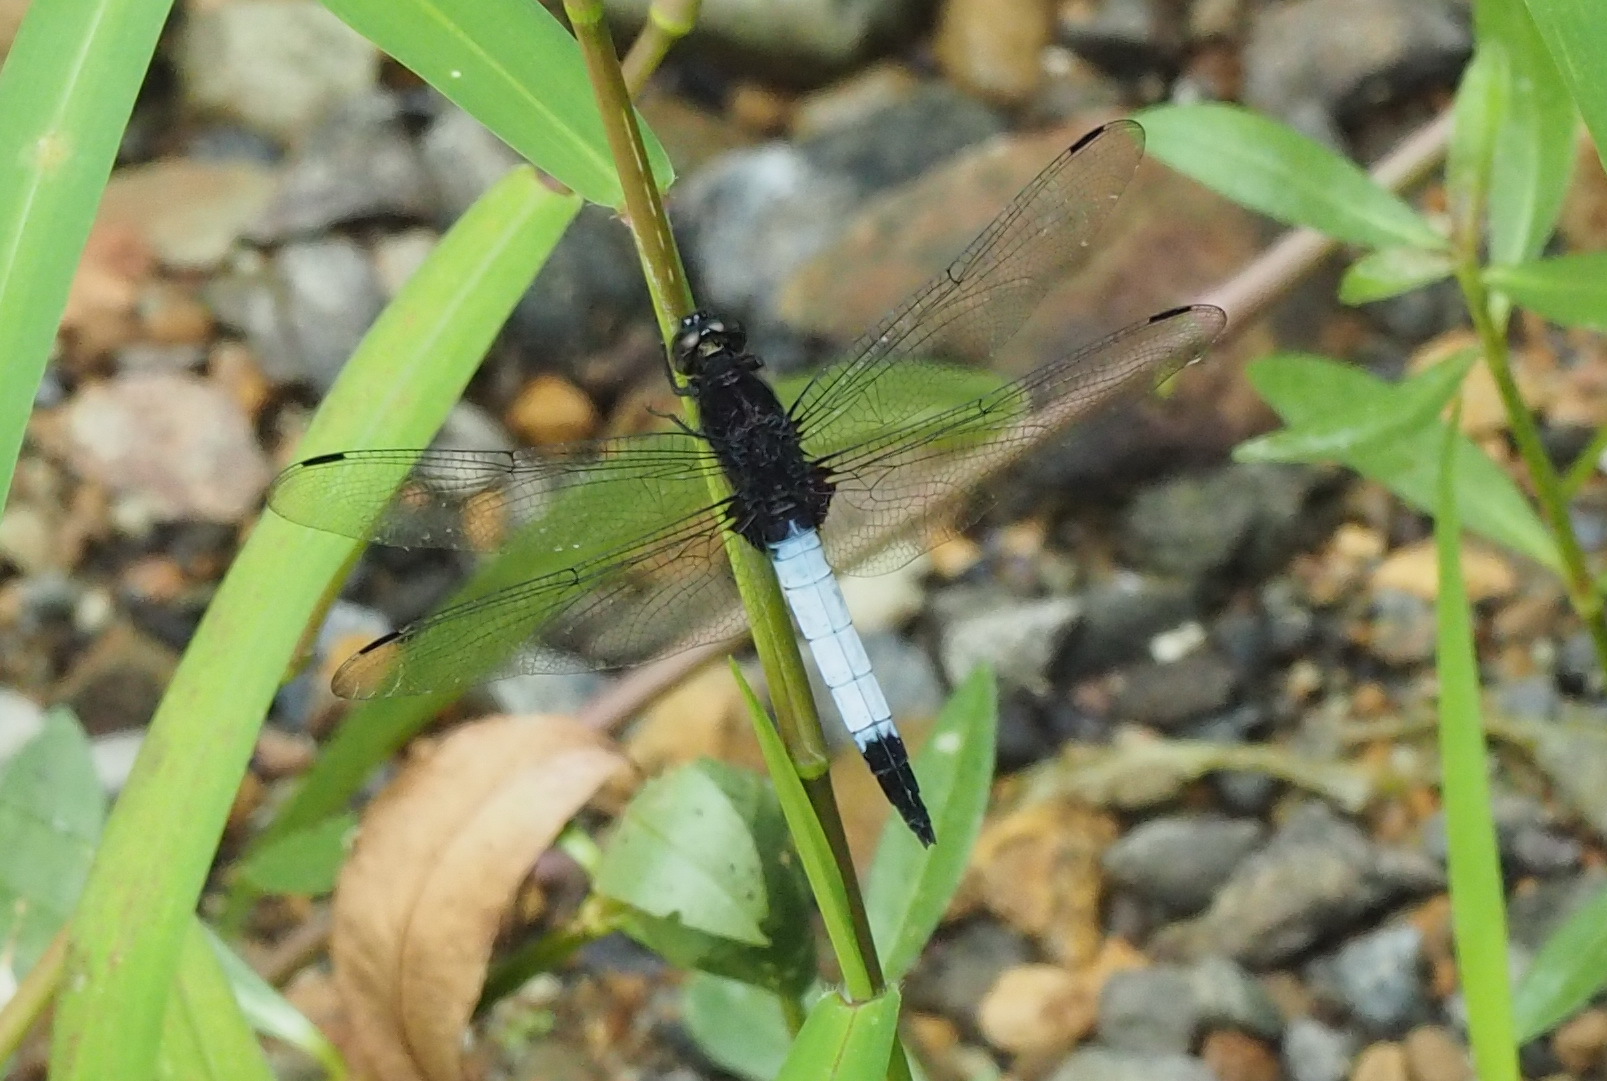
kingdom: Animalia
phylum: Arthropoda
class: Insecta
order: Odonata
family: Libellulidae
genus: Orthetrum
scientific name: Orthetrum triangulare
